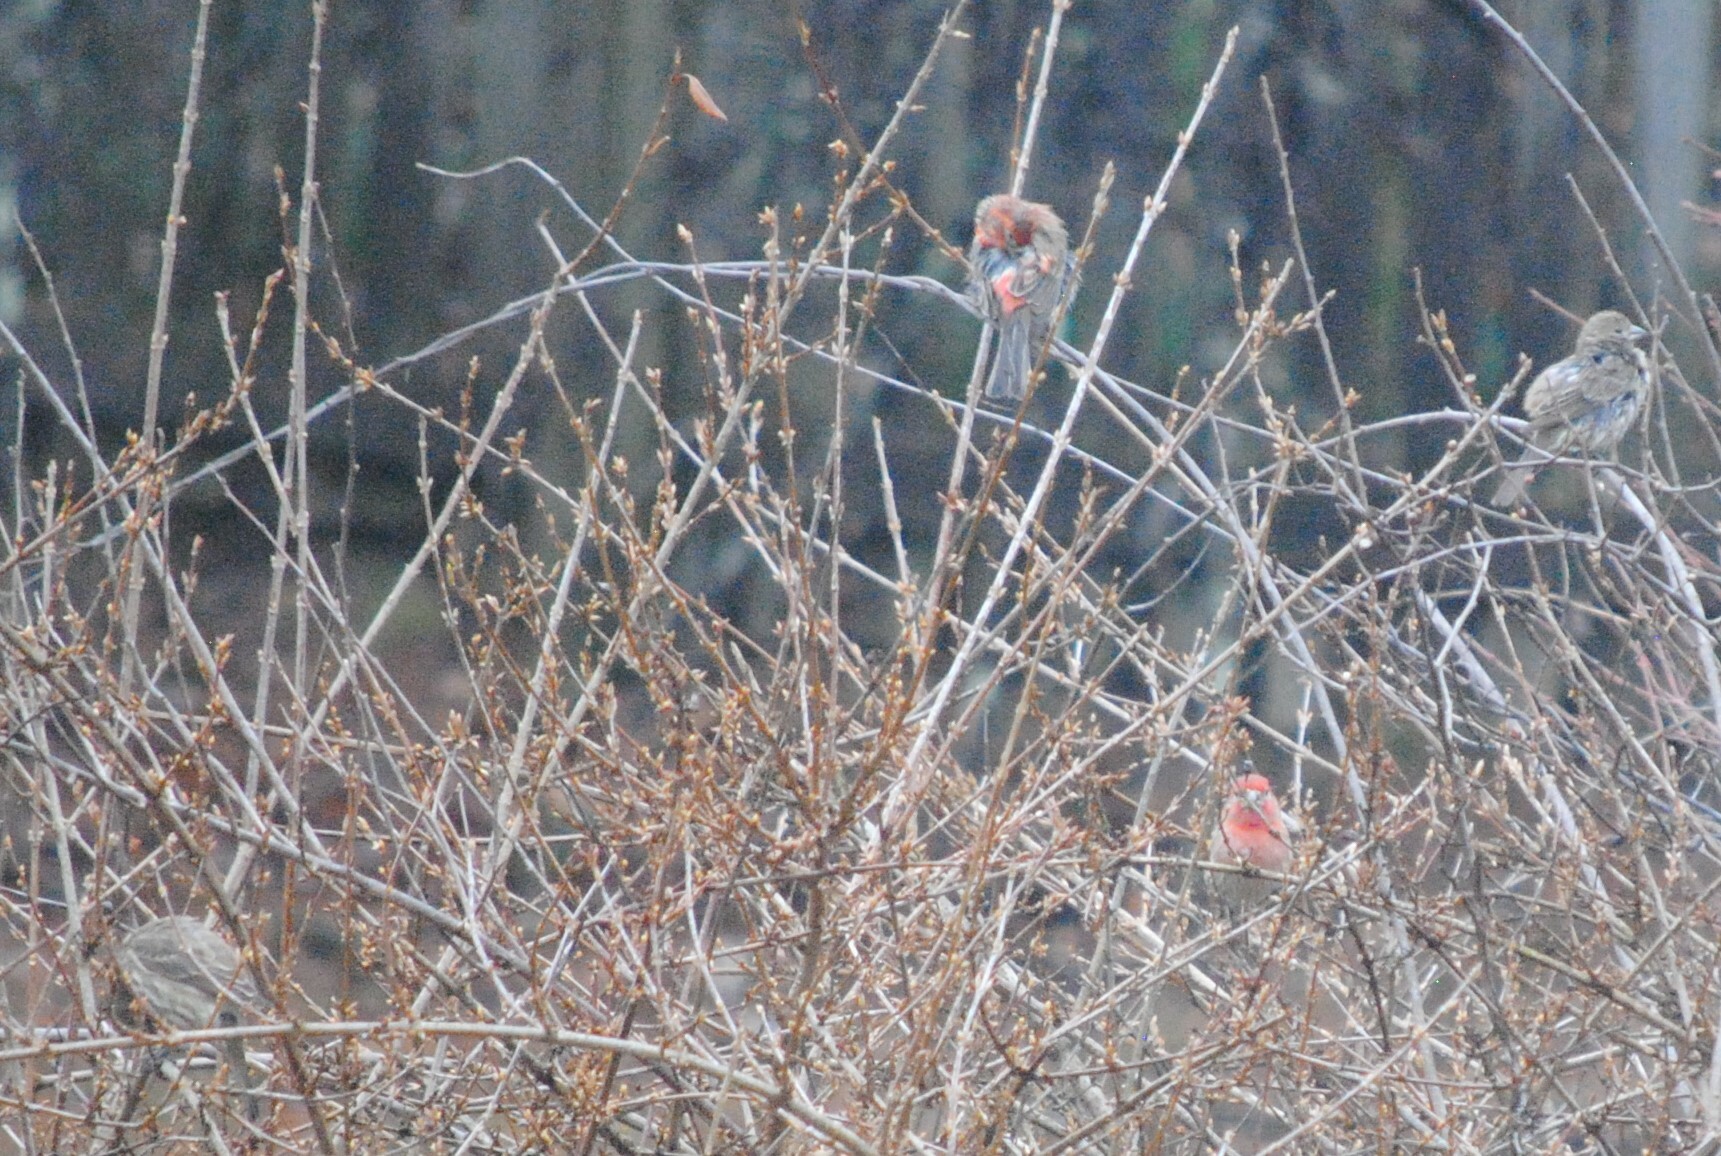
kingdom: Animalia
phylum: Chordata
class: Aves
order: Passeriformes
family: Fringillidae
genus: Haemorhous
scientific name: Haemorhous mexicanus
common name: House finch
